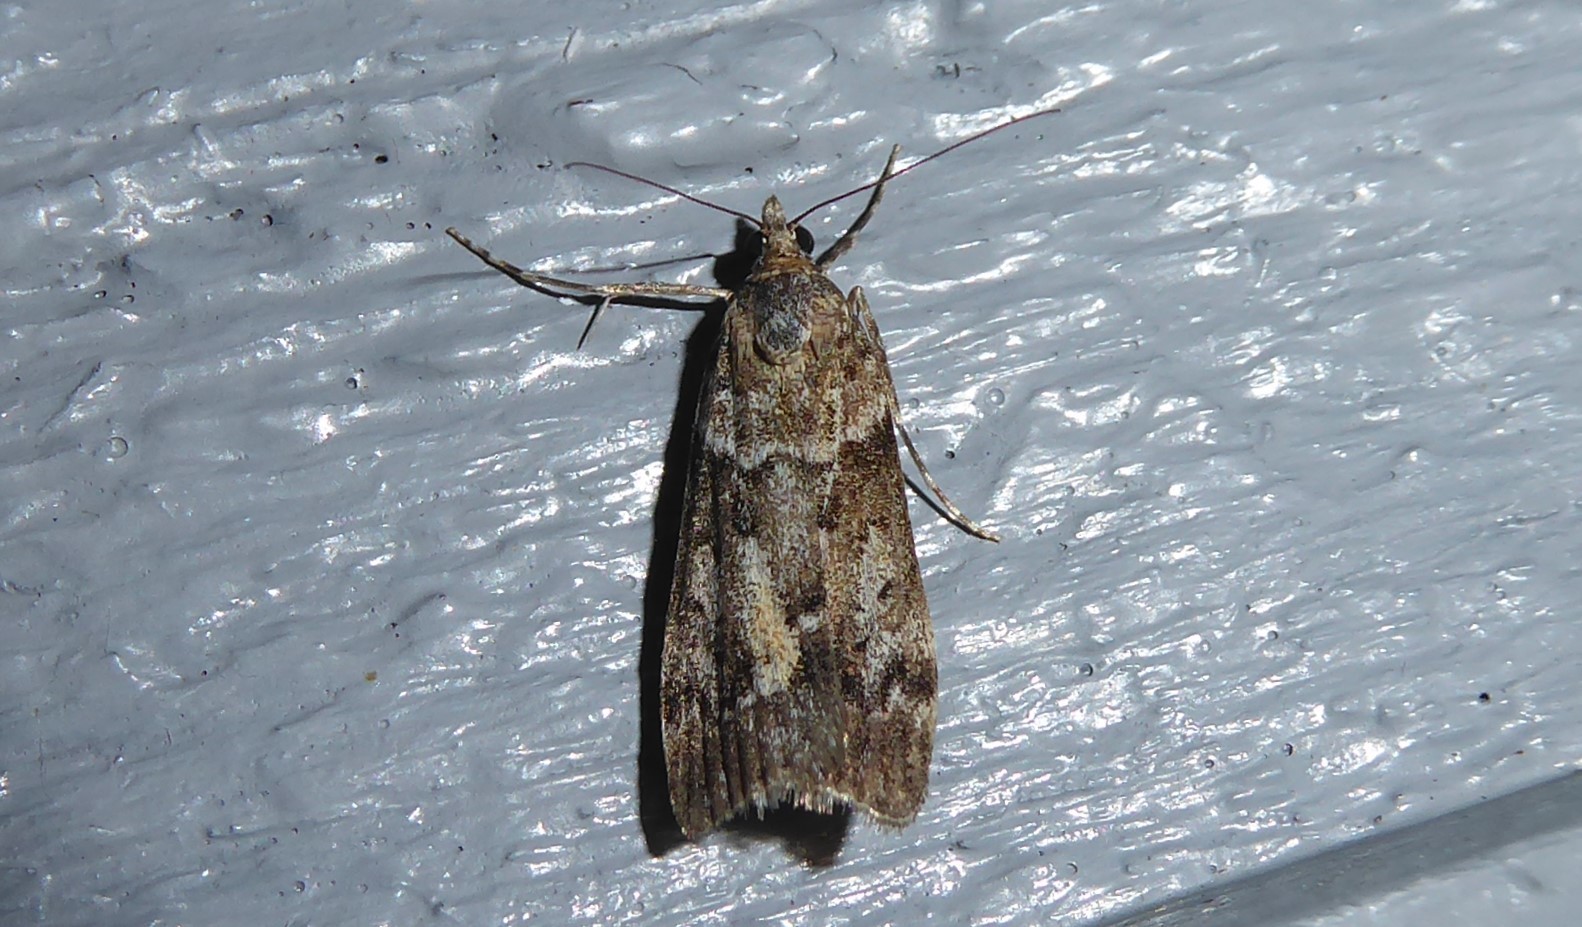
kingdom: Animalia
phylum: Arthropoda
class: Insecta
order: Lepidoptera
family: Crambidae
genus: Eudonia
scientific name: Eudonia submarginalis
